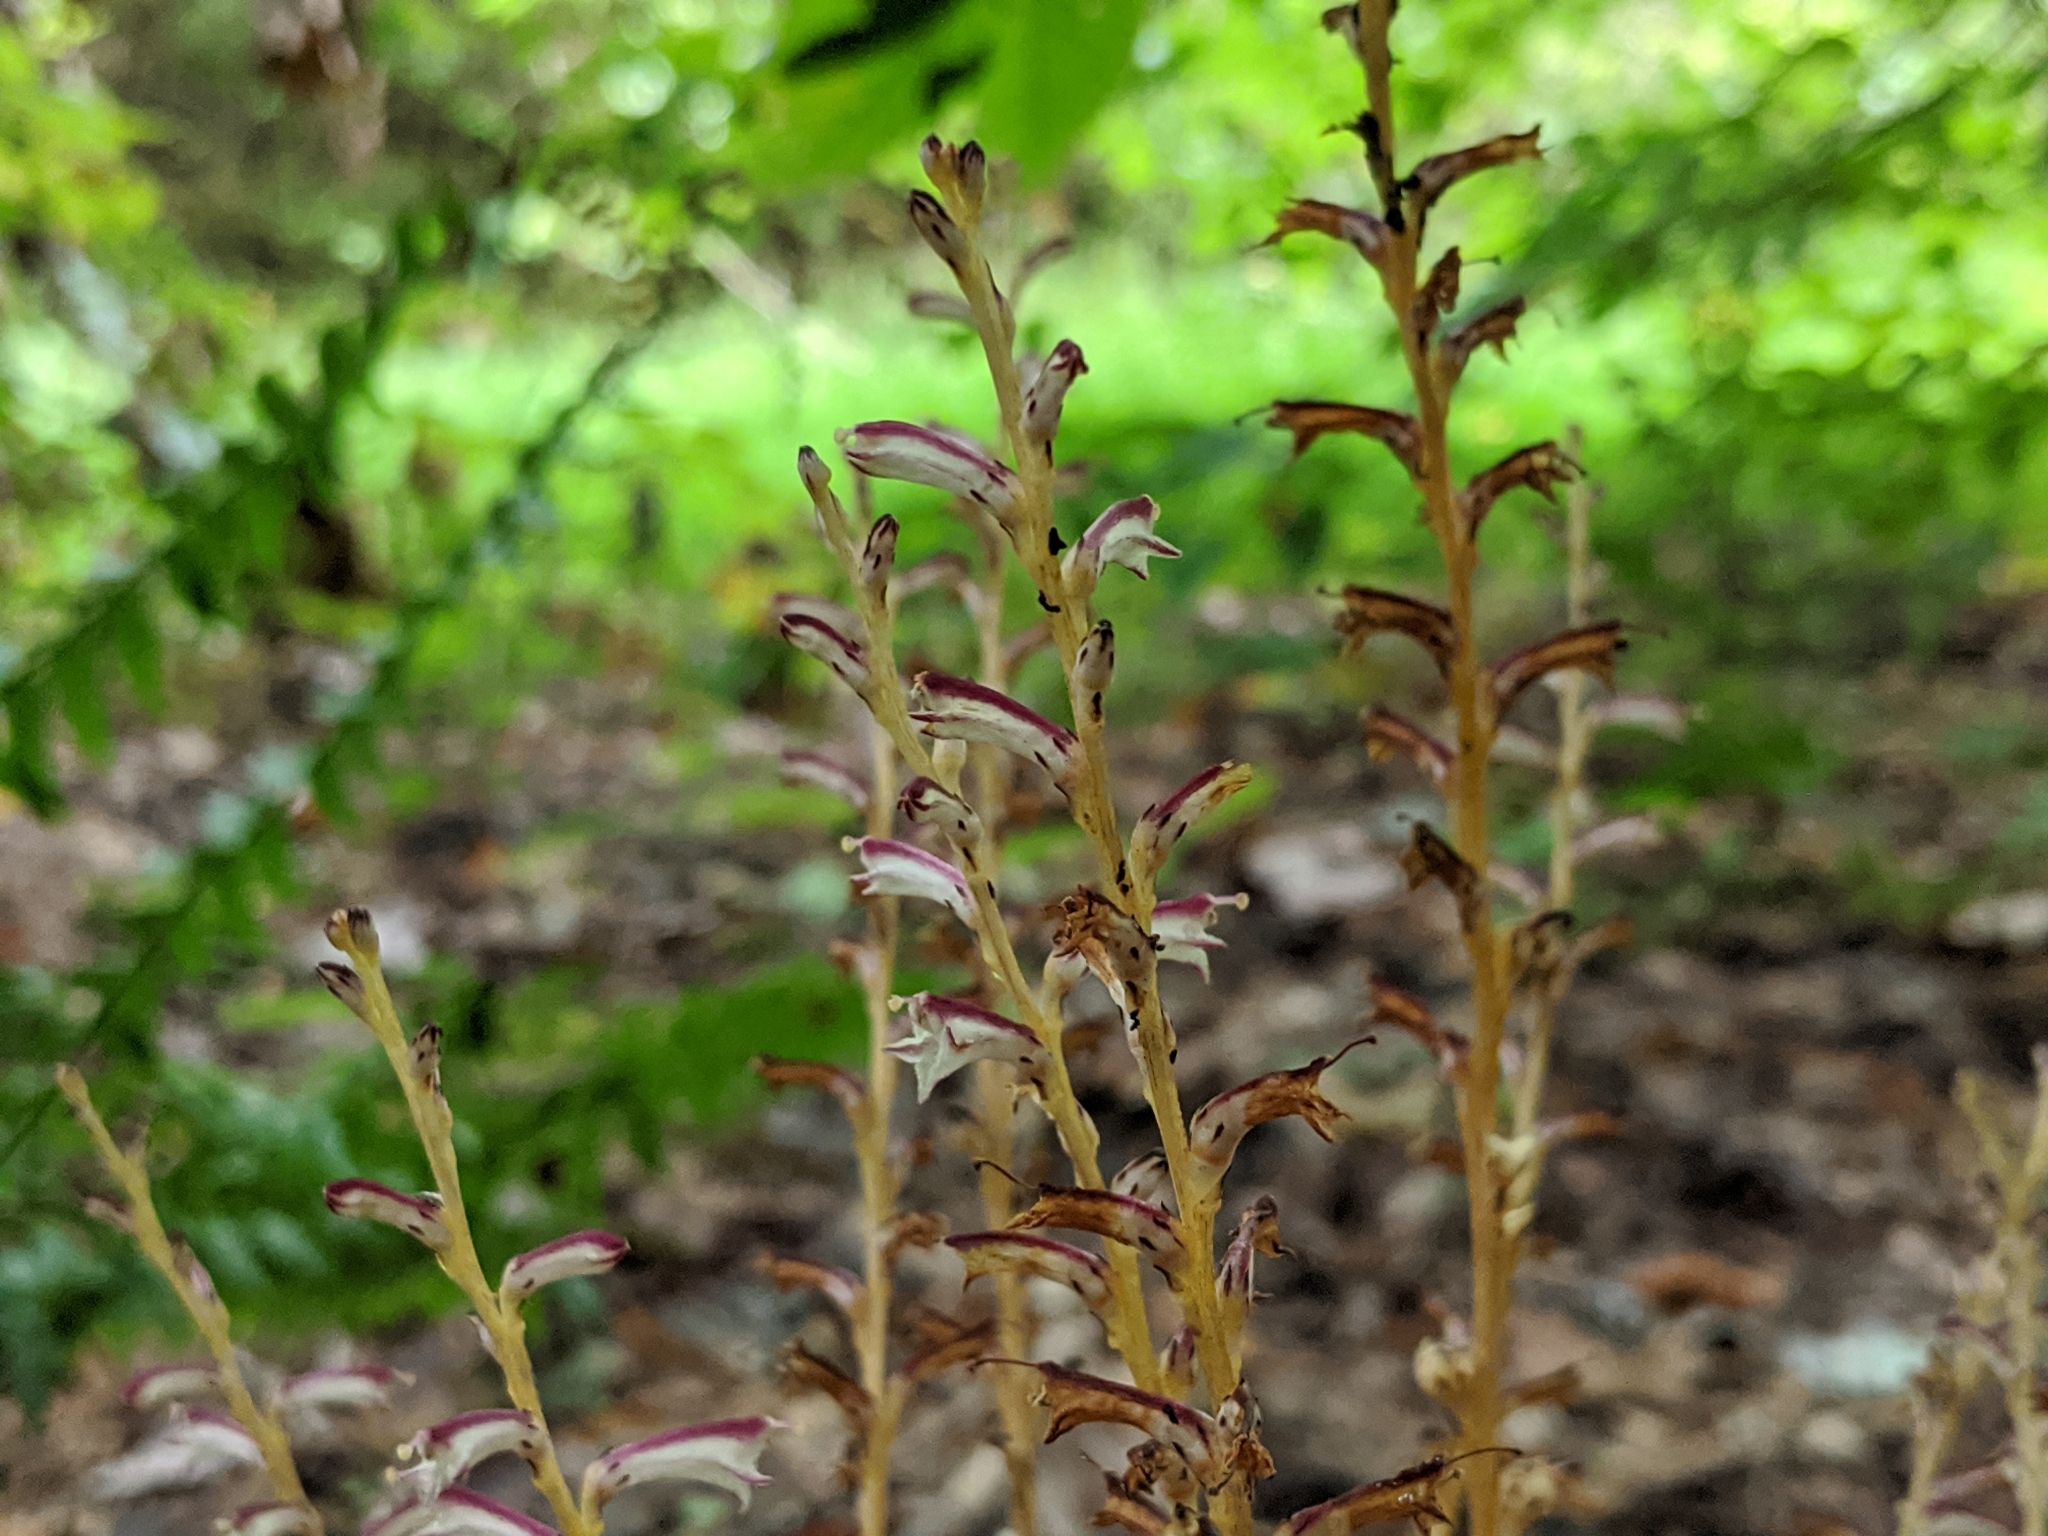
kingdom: Plantae
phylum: Tracheophyta
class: Magnoliopsida
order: Lamiales
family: Orobanchaceae
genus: Epifagus
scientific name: Epifagus virginiana
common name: Beechdrops
